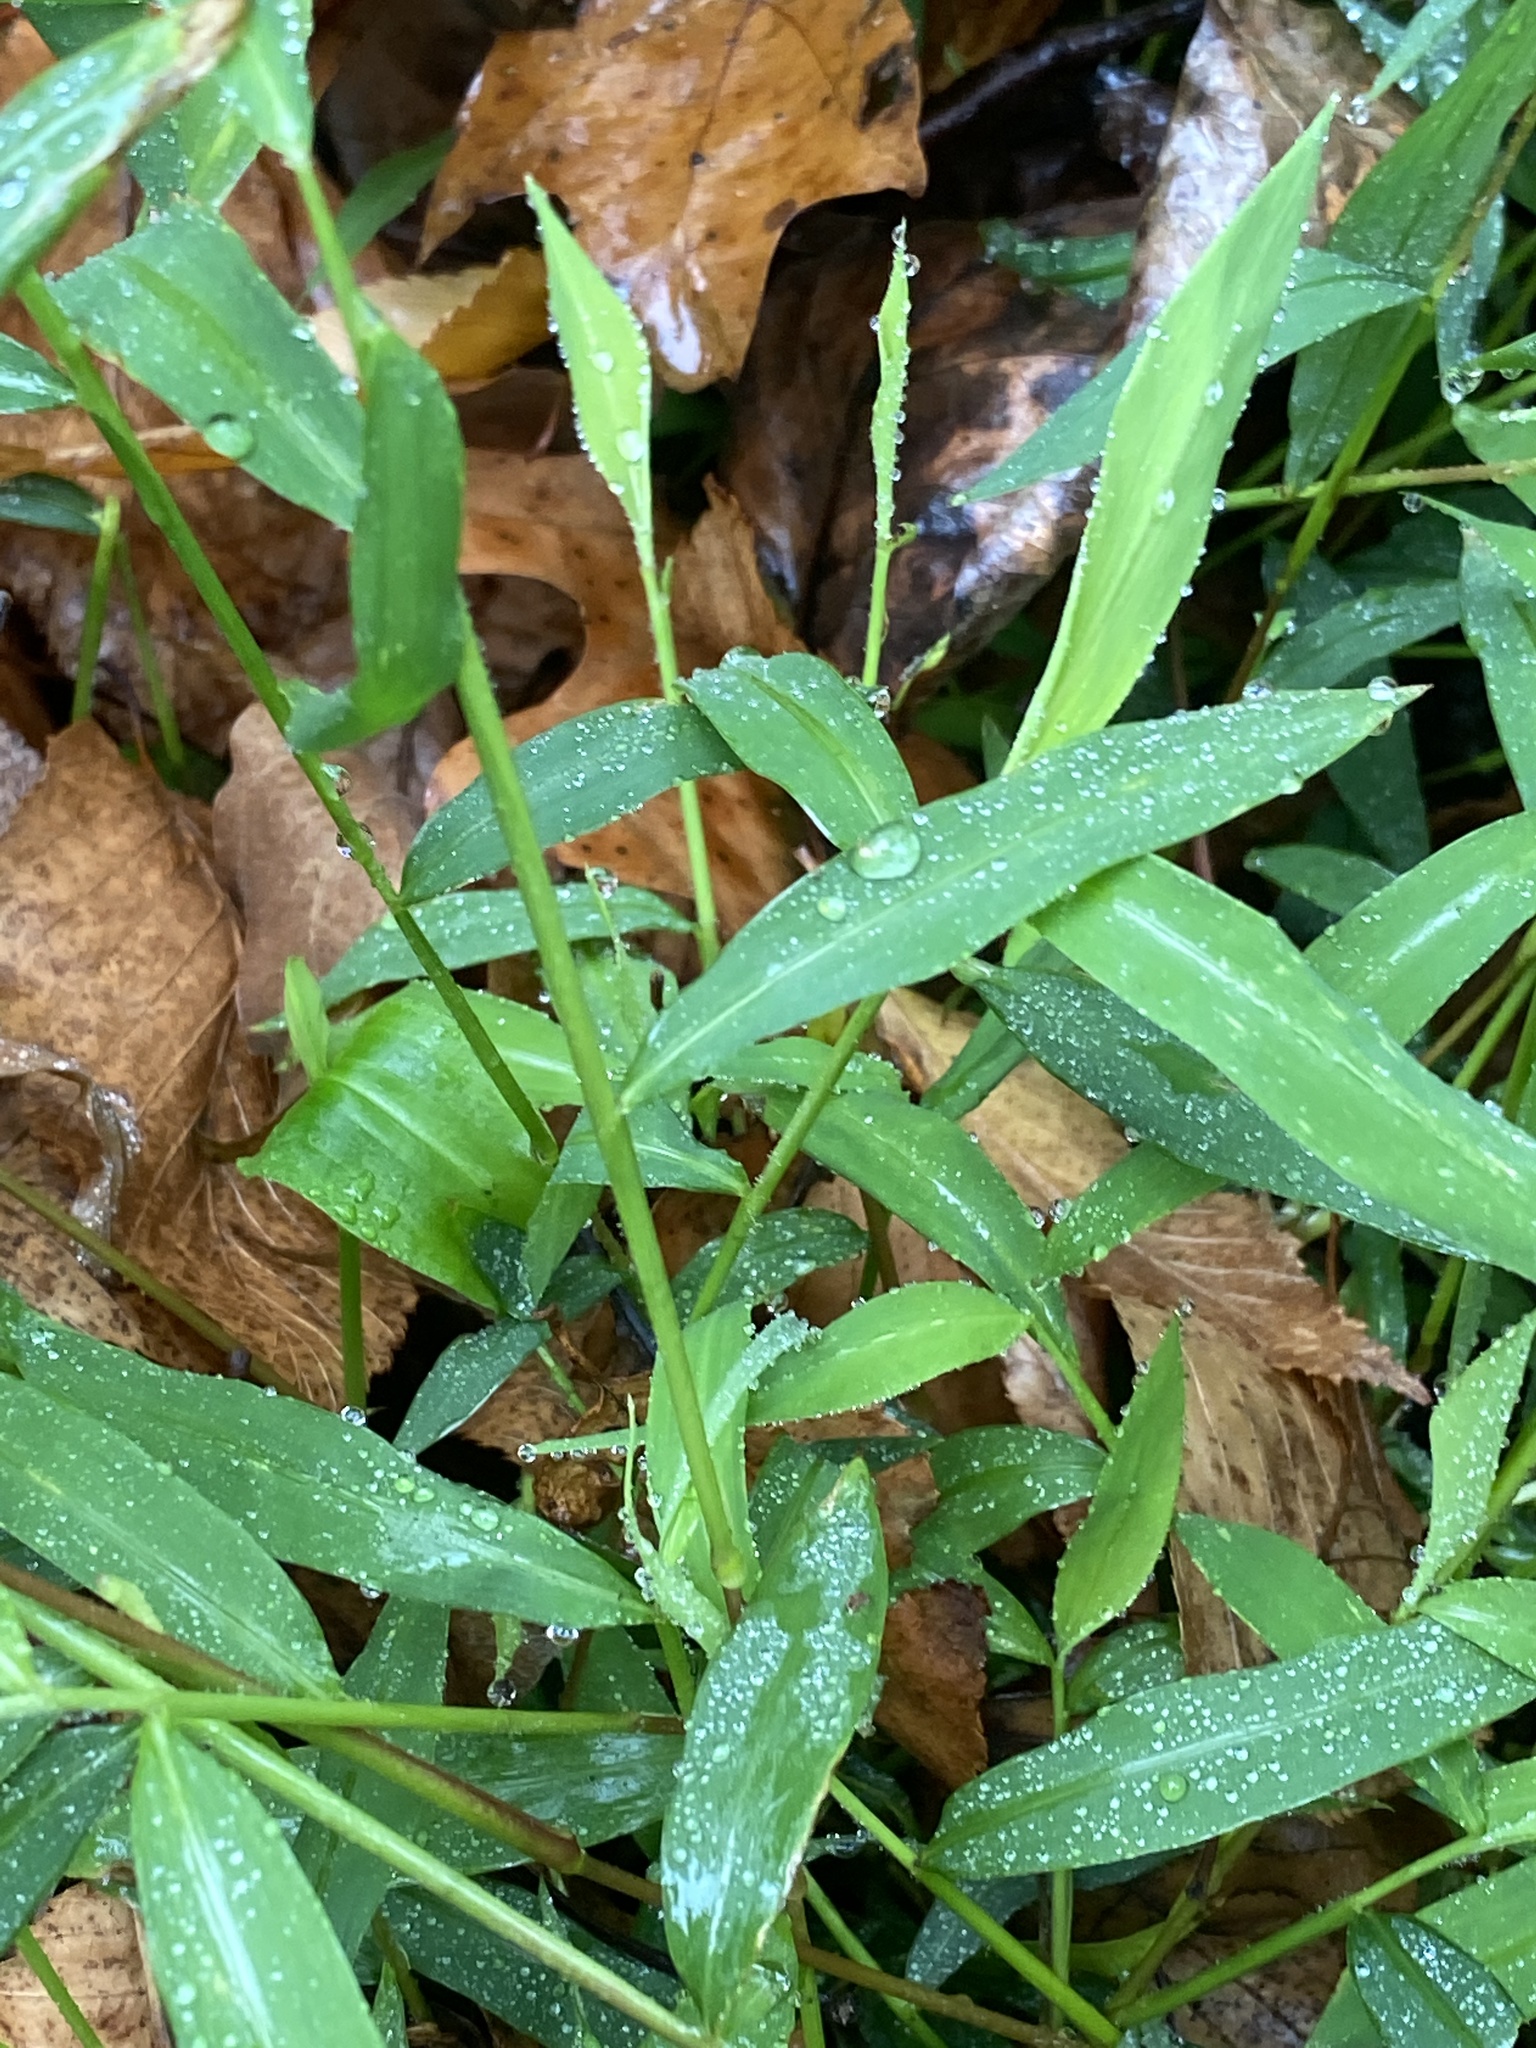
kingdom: Plantae
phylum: Tracheophyta
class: Liliopsida
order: Poales
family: Poaceae
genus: Microstegium
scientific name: Microstegium vimineum
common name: Japanese stiltgrass
